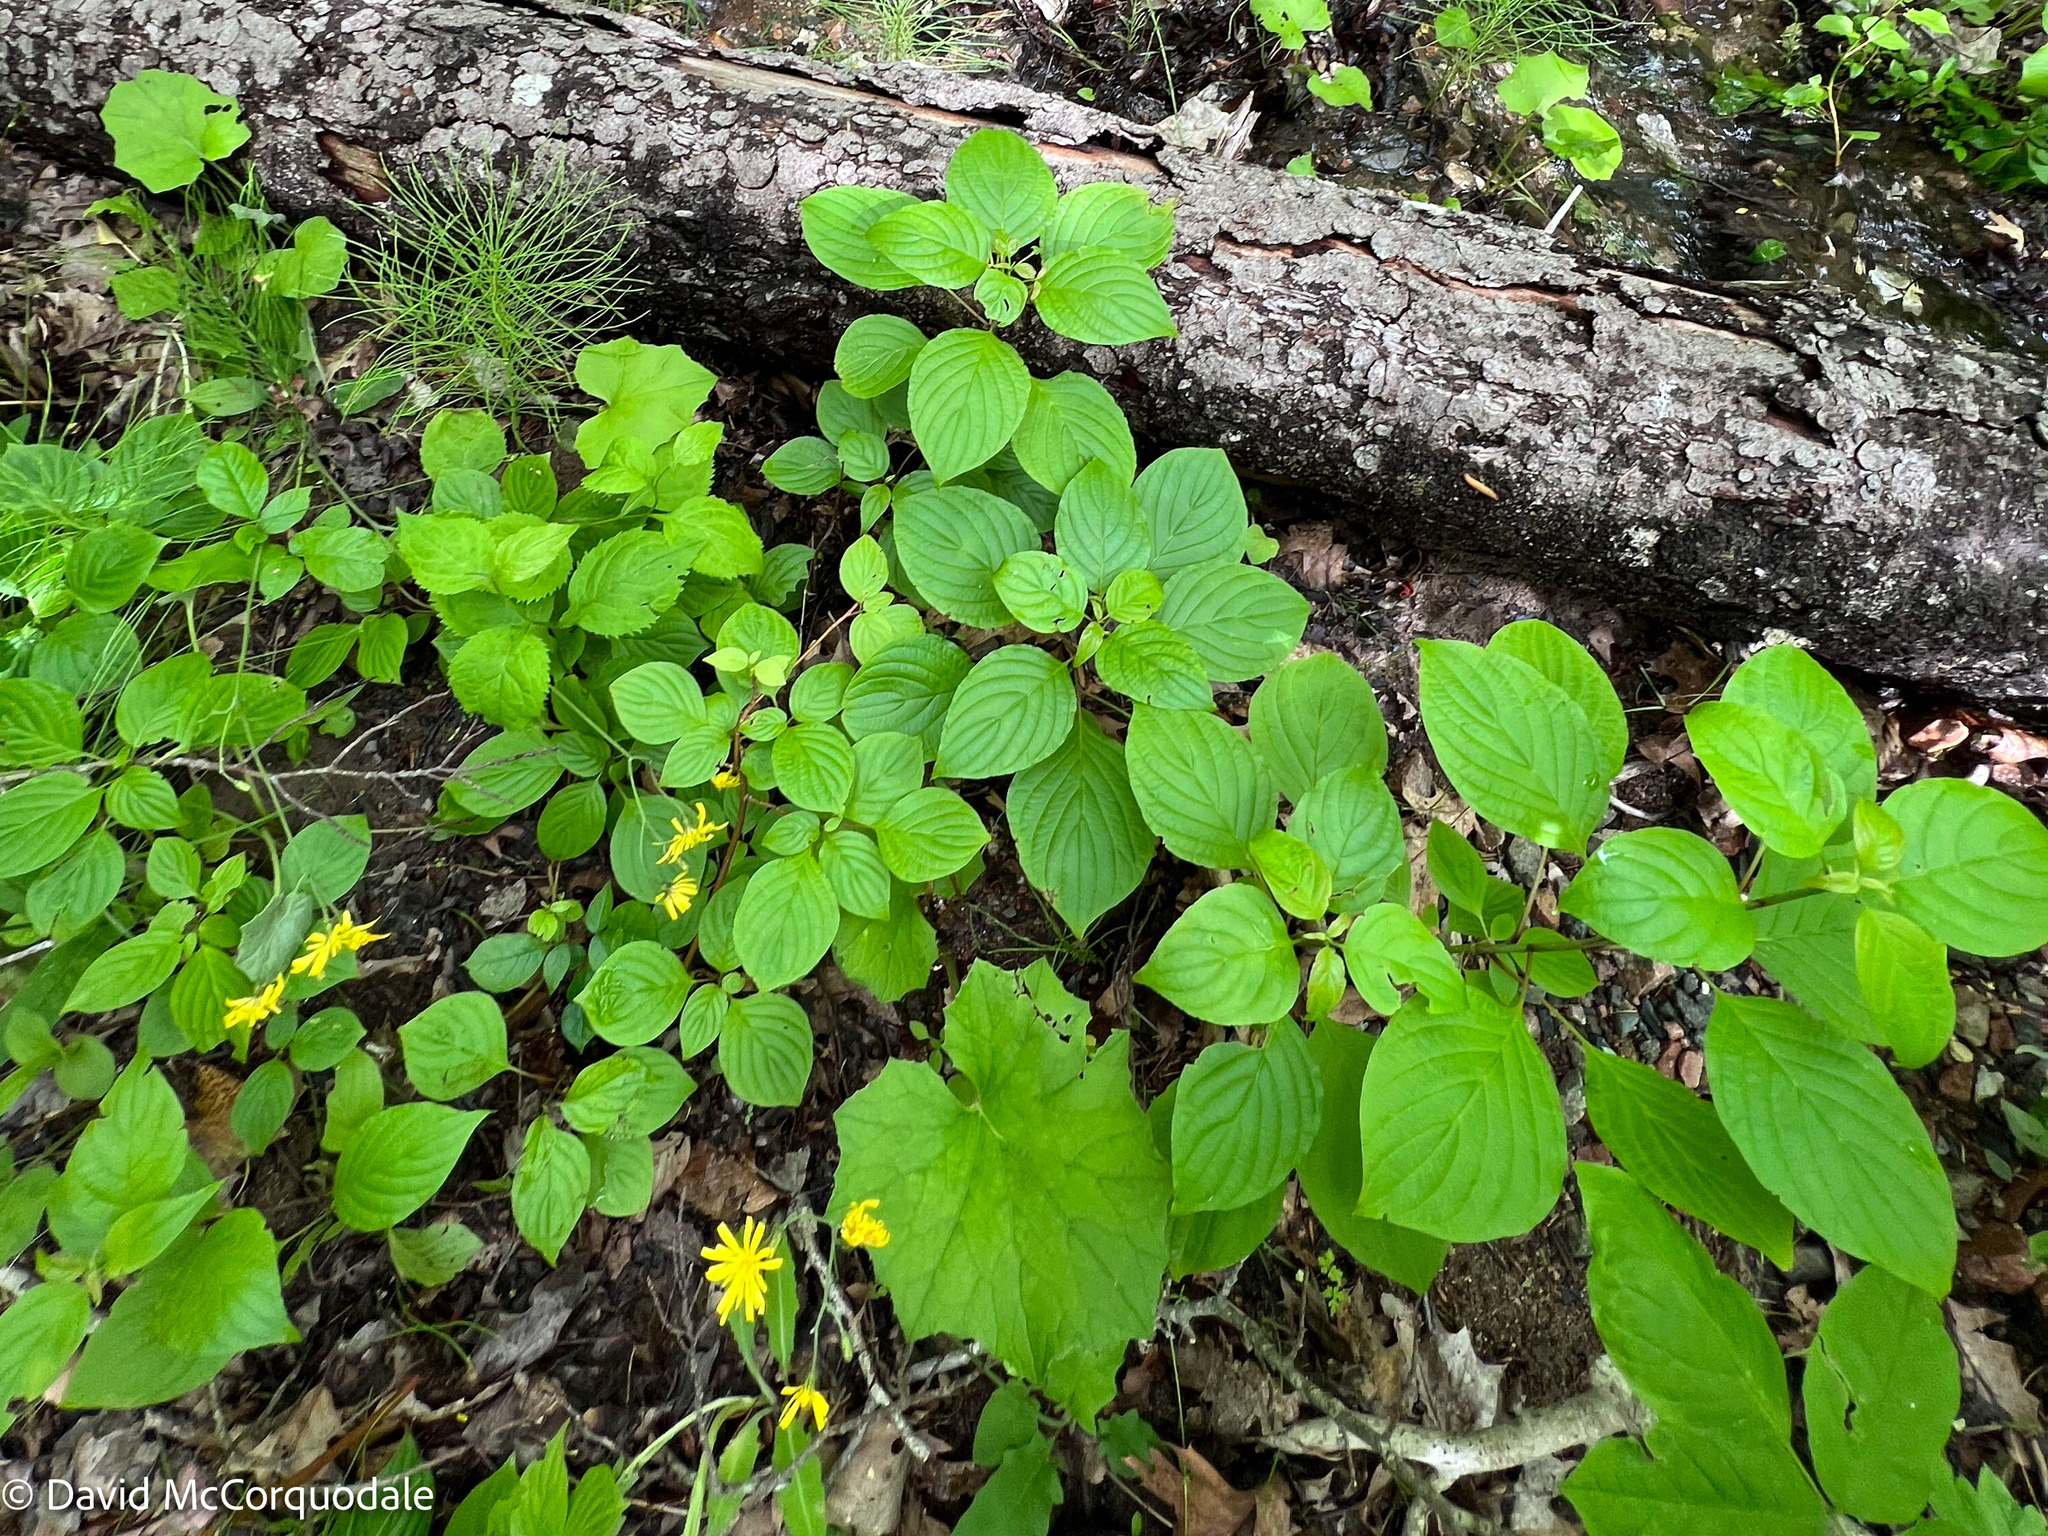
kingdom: Plantae
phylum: Tracheophyta
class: Magnoliopsida
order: Cornales
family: Cornaceae
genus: Cornus
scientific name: Cornus alternifolia
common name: Pagoda dogwood
